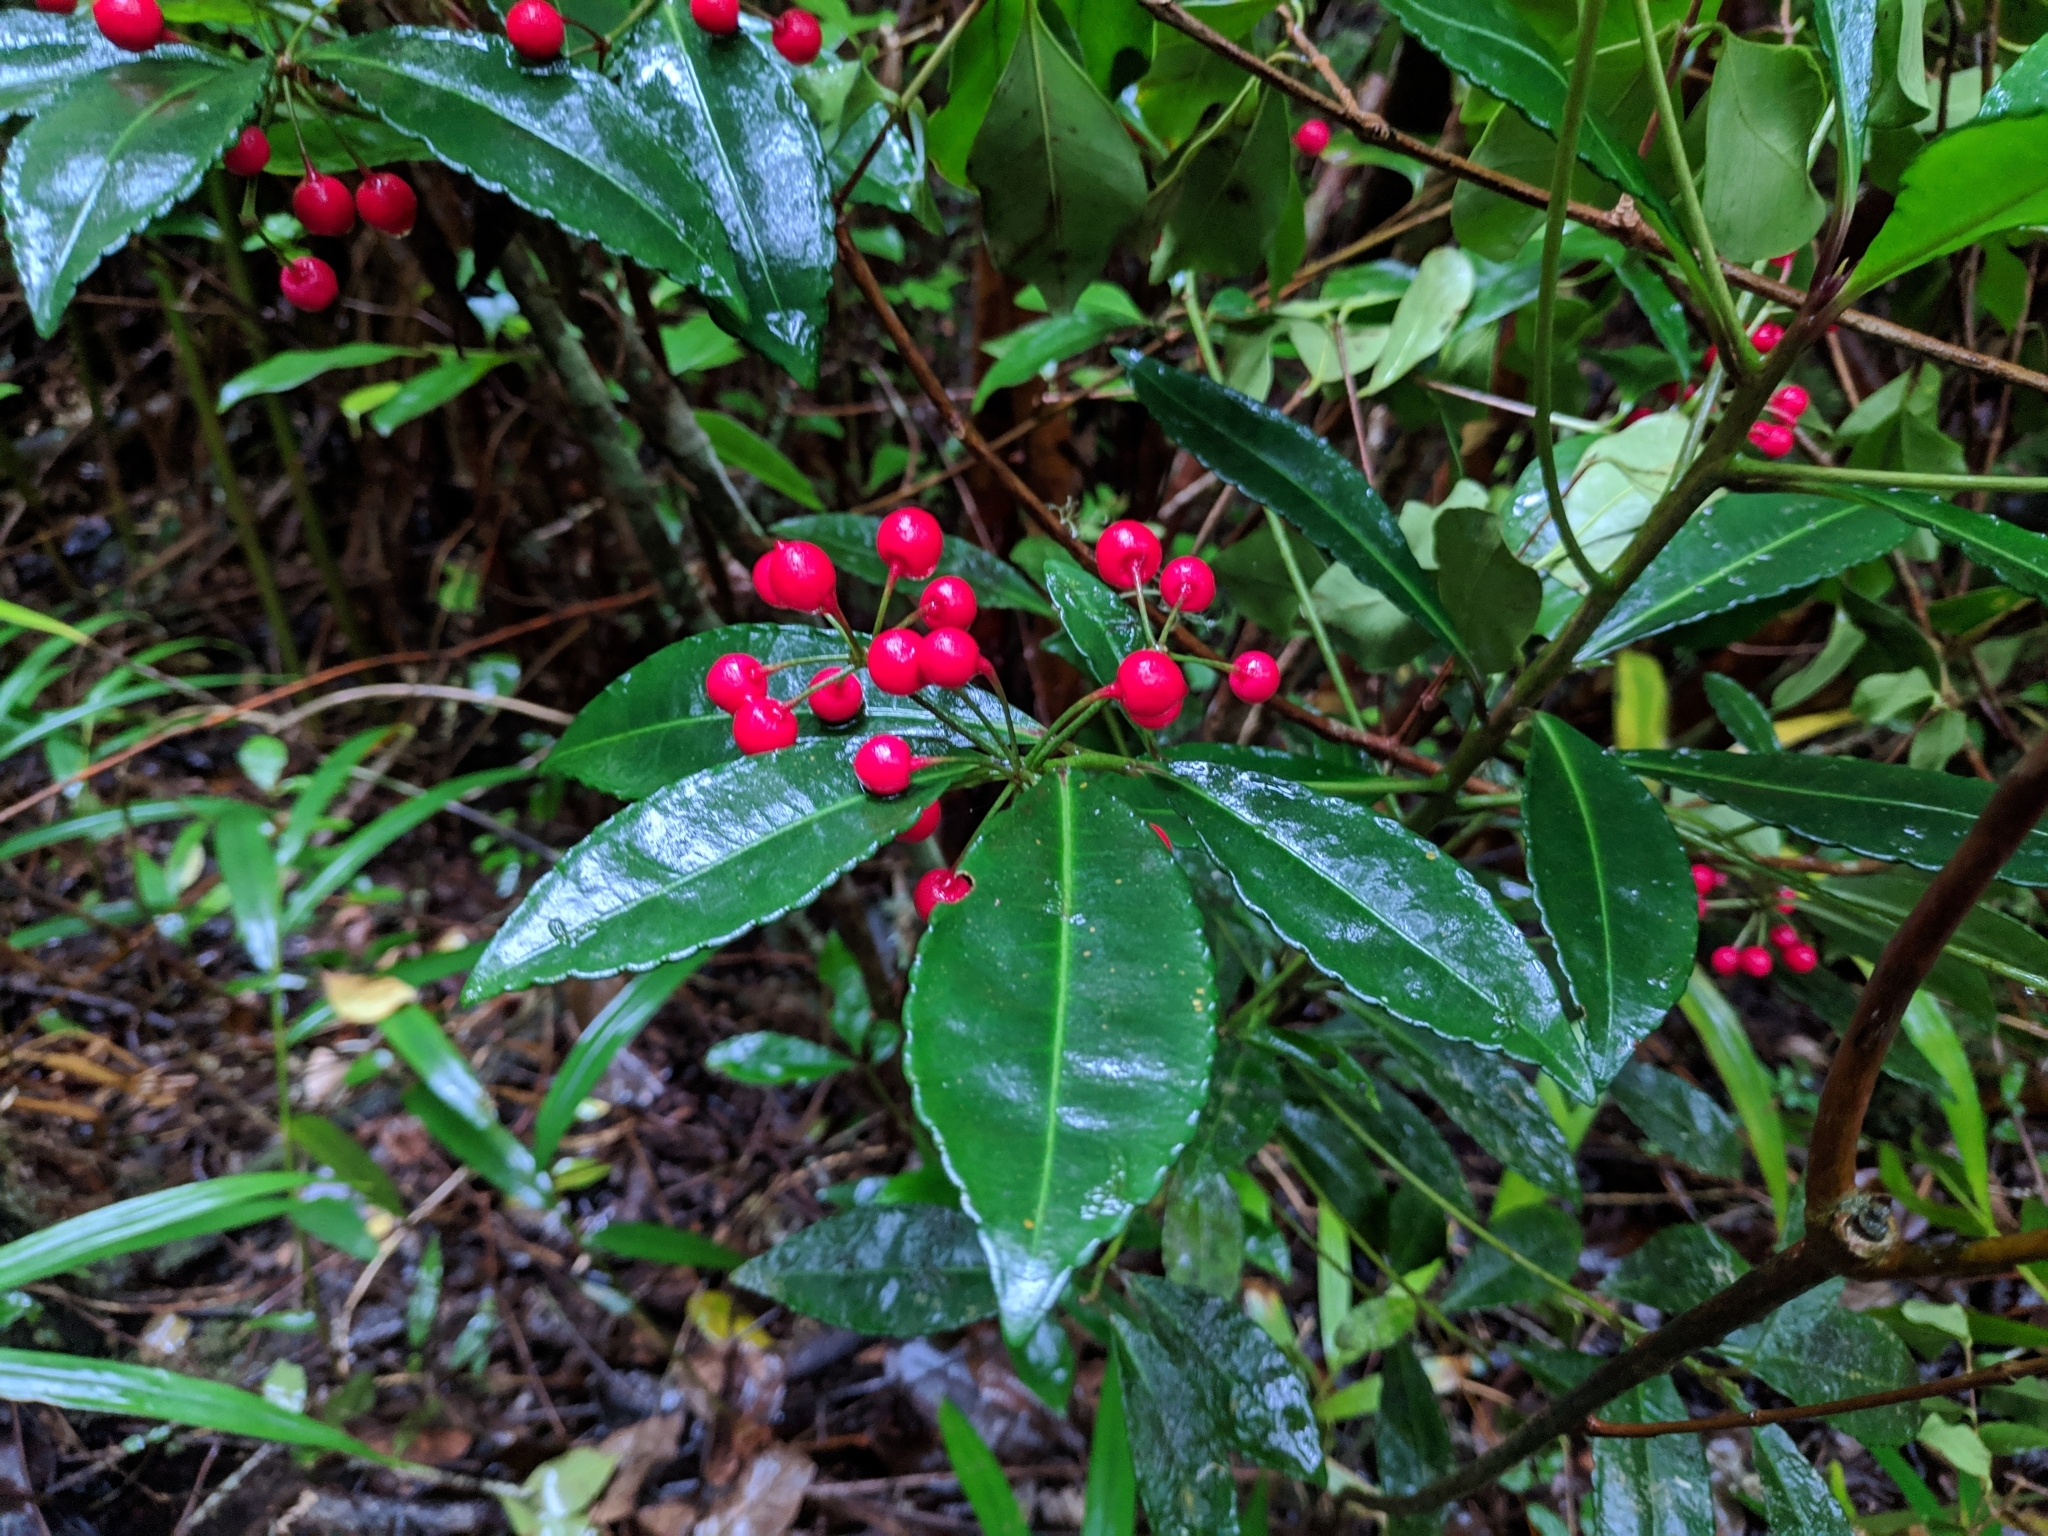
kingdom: Plantae
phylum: Tracheophyta
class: Magnoliopsida
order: Ericales
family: Primulaceae
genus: Ardisia
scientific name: Ardisia crenata
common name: Hen's eyes
